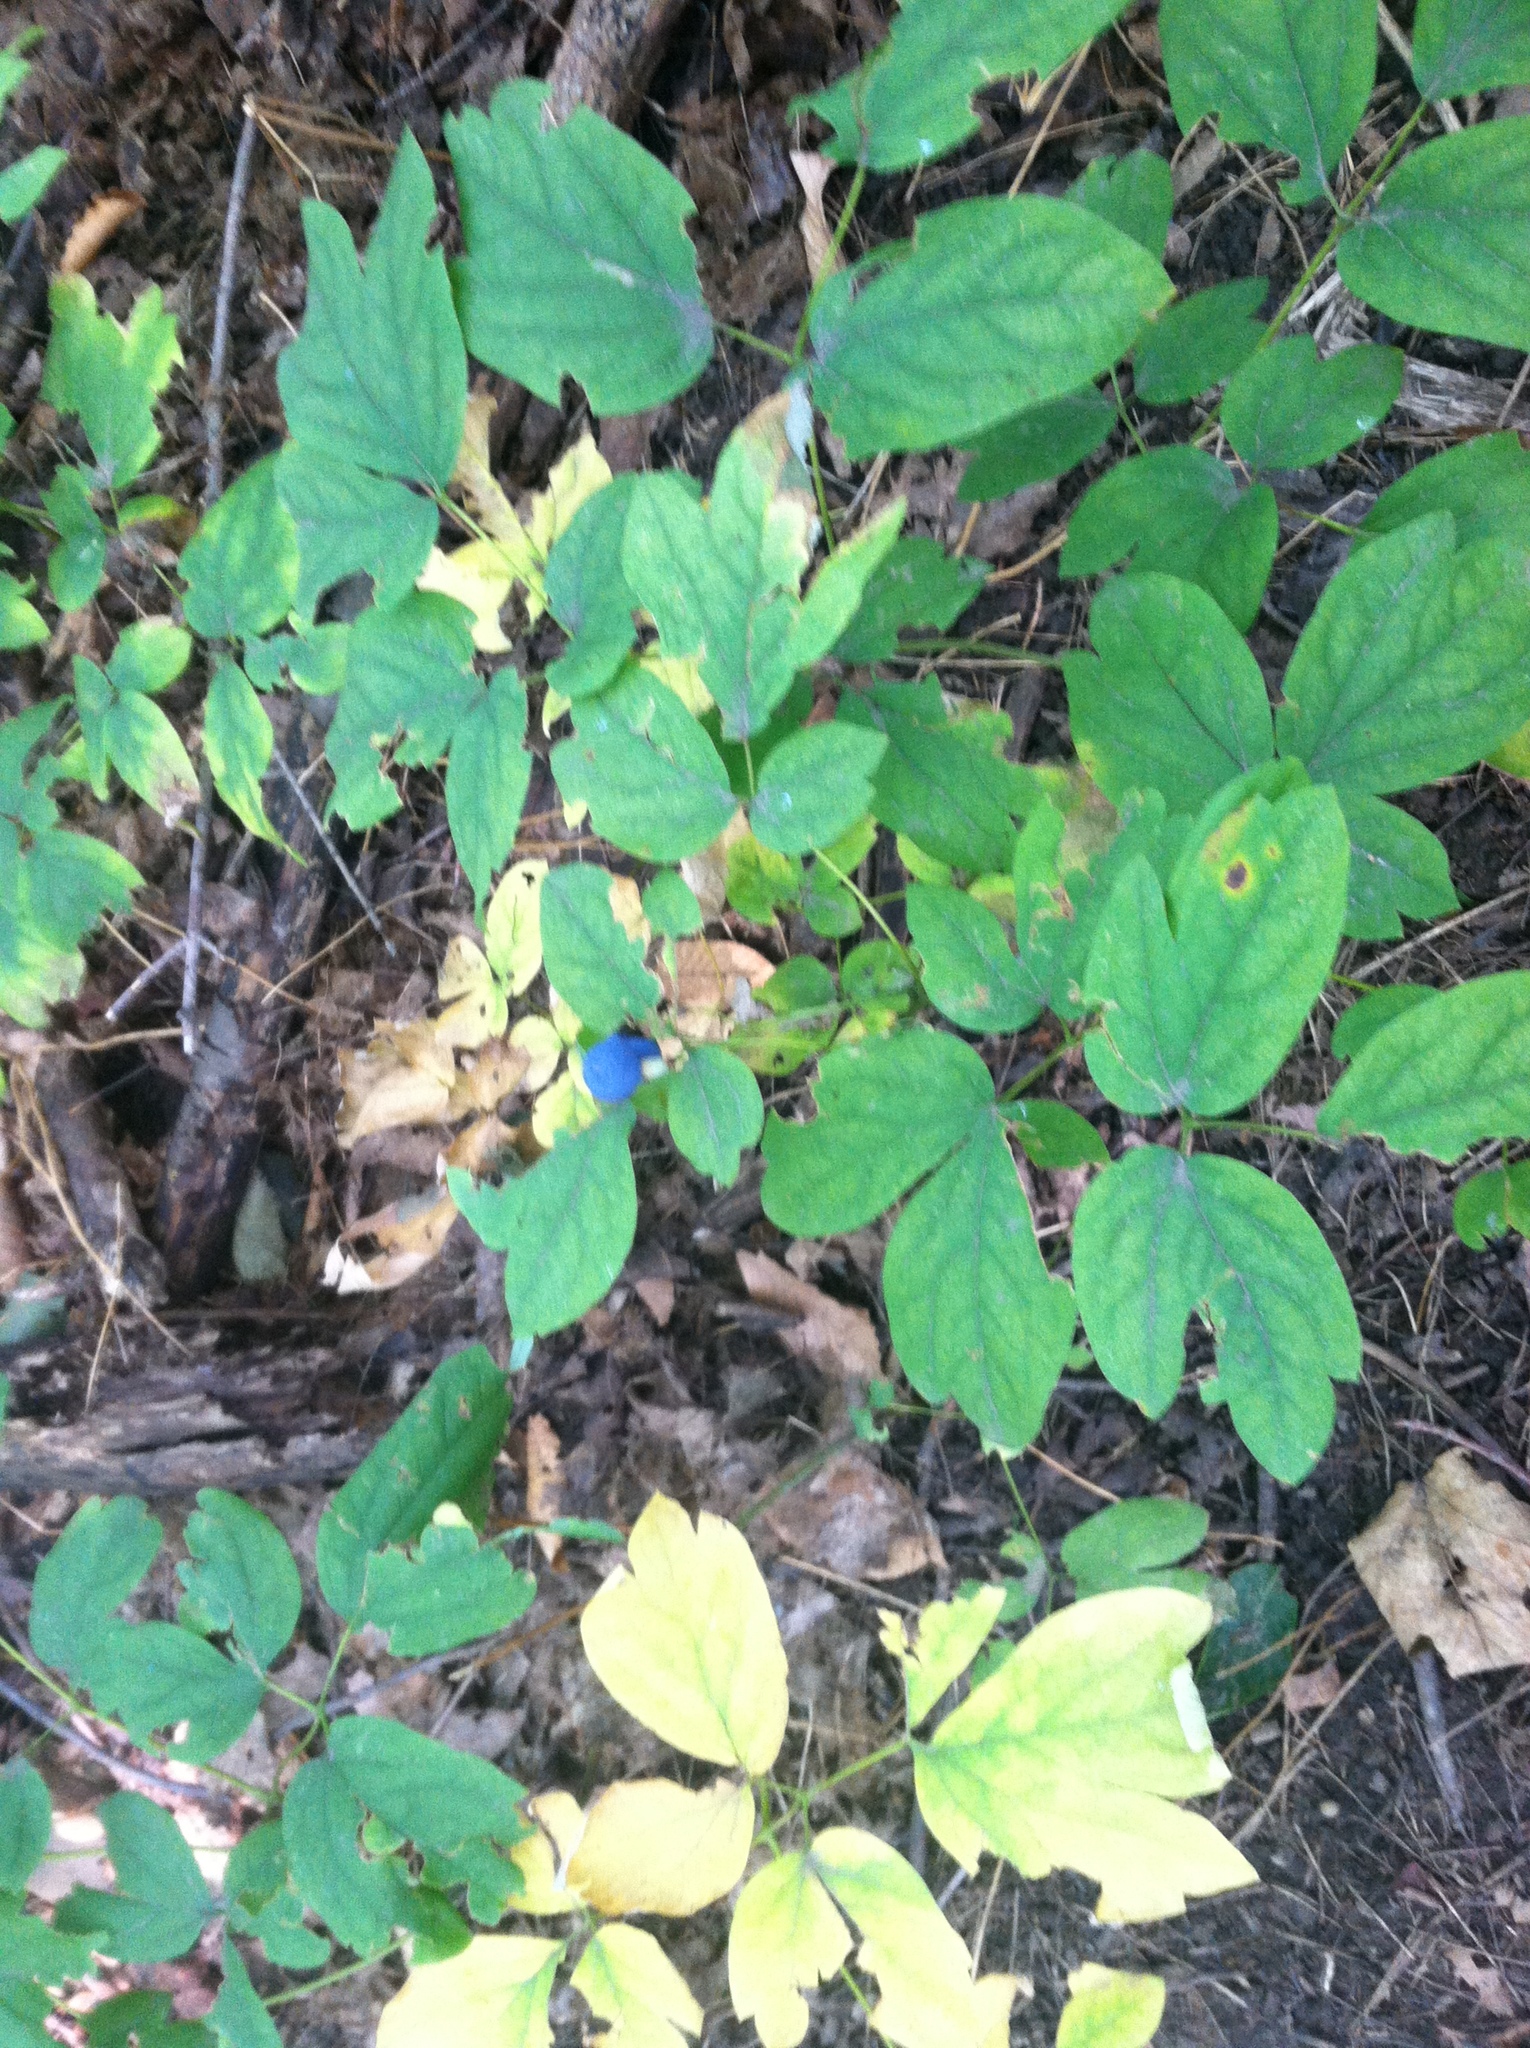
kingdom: Plantae
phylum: Tracheophyta
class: Magnoliopsida
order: Ranunculales
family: Berberidaceae
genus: Caulophyllum
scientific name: Caulophyllum thalictroides
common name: Blue cohosh
